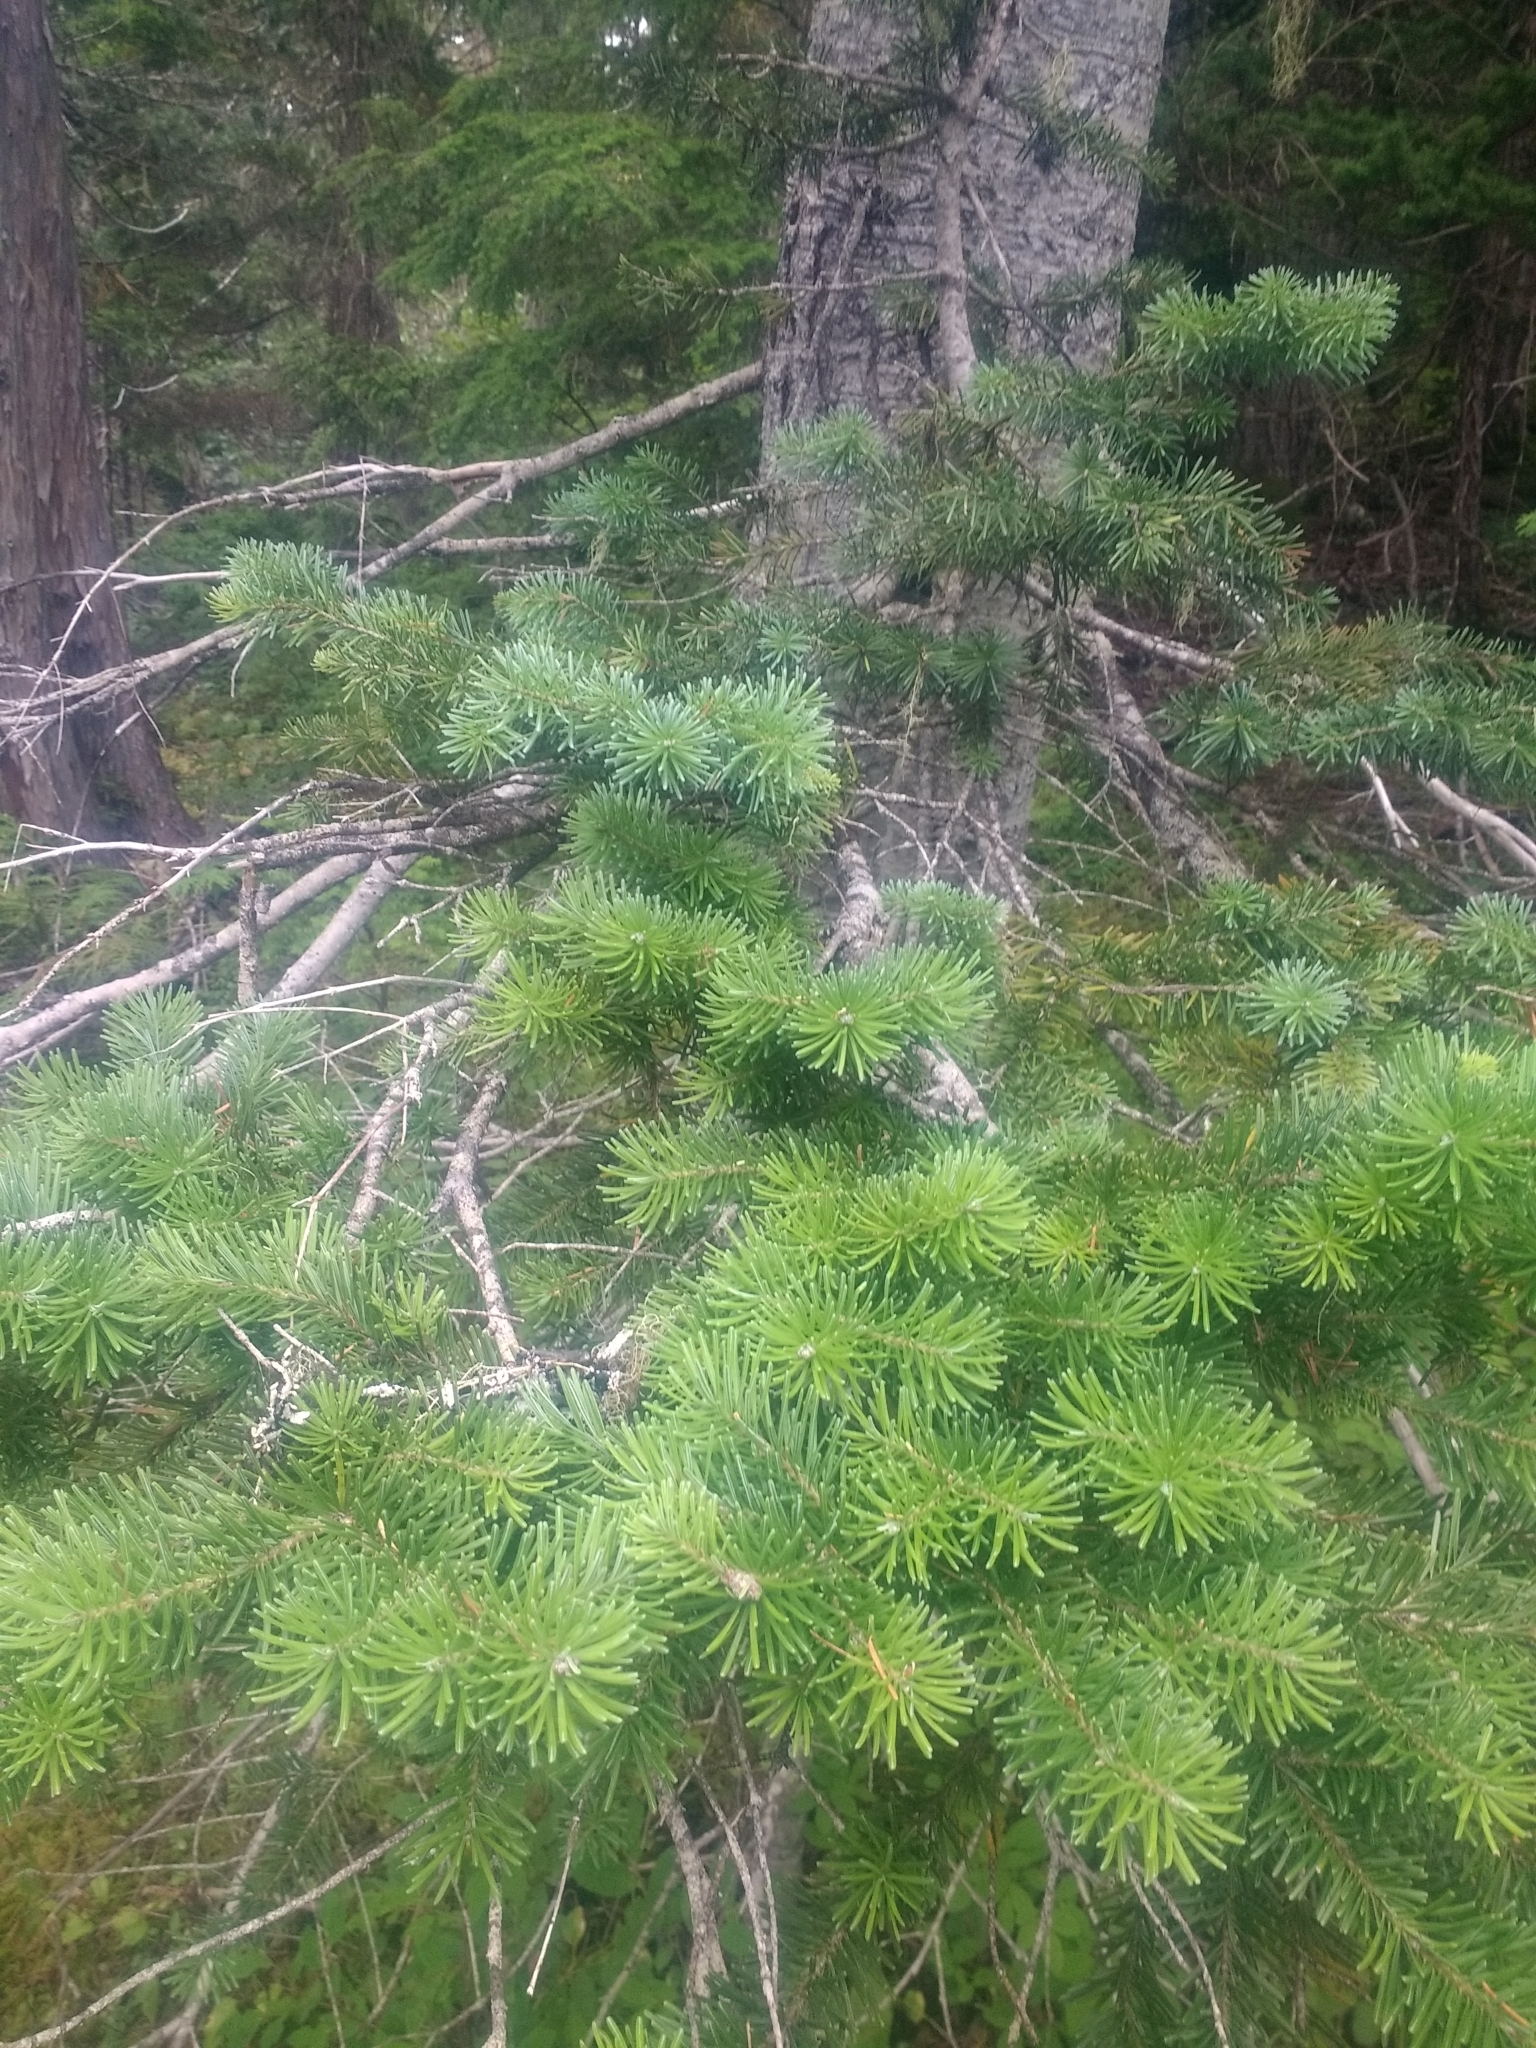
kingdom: Plantae
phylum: Tracheophyta
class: Pinopsida
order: Pinales
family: Pinaceae
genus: Abies
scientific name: Abies lasiocarpa
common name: Subalpine fir
